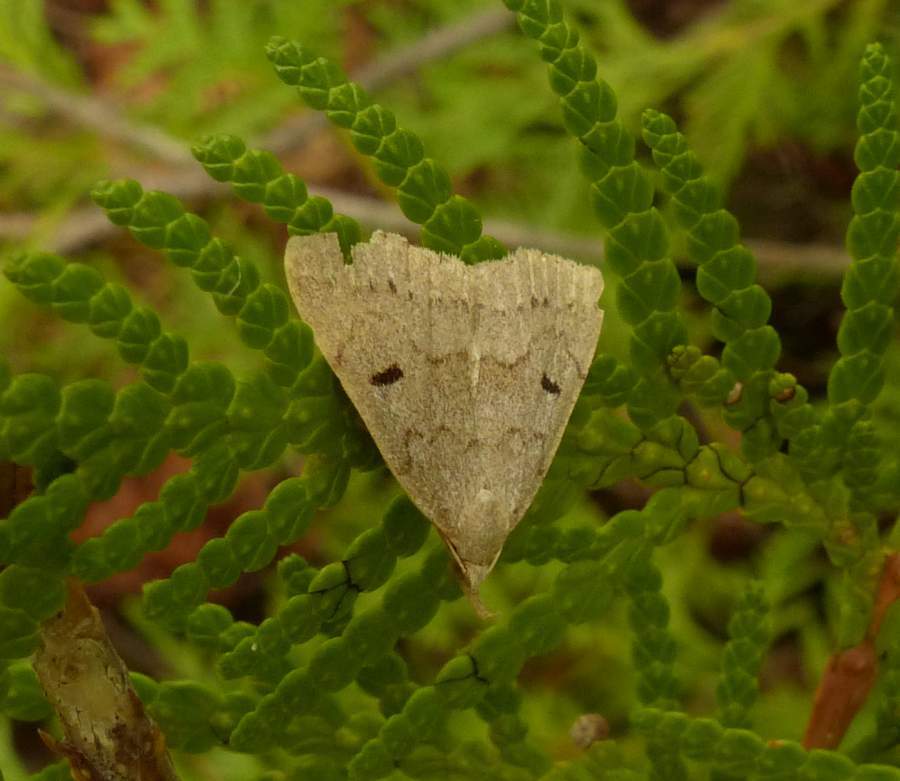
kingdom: Animalia
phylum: Arthropoda
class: Insecta
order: Lepidoptera
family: Erebidae
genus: Macrochilo
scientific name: Macrochilo morbidalis
